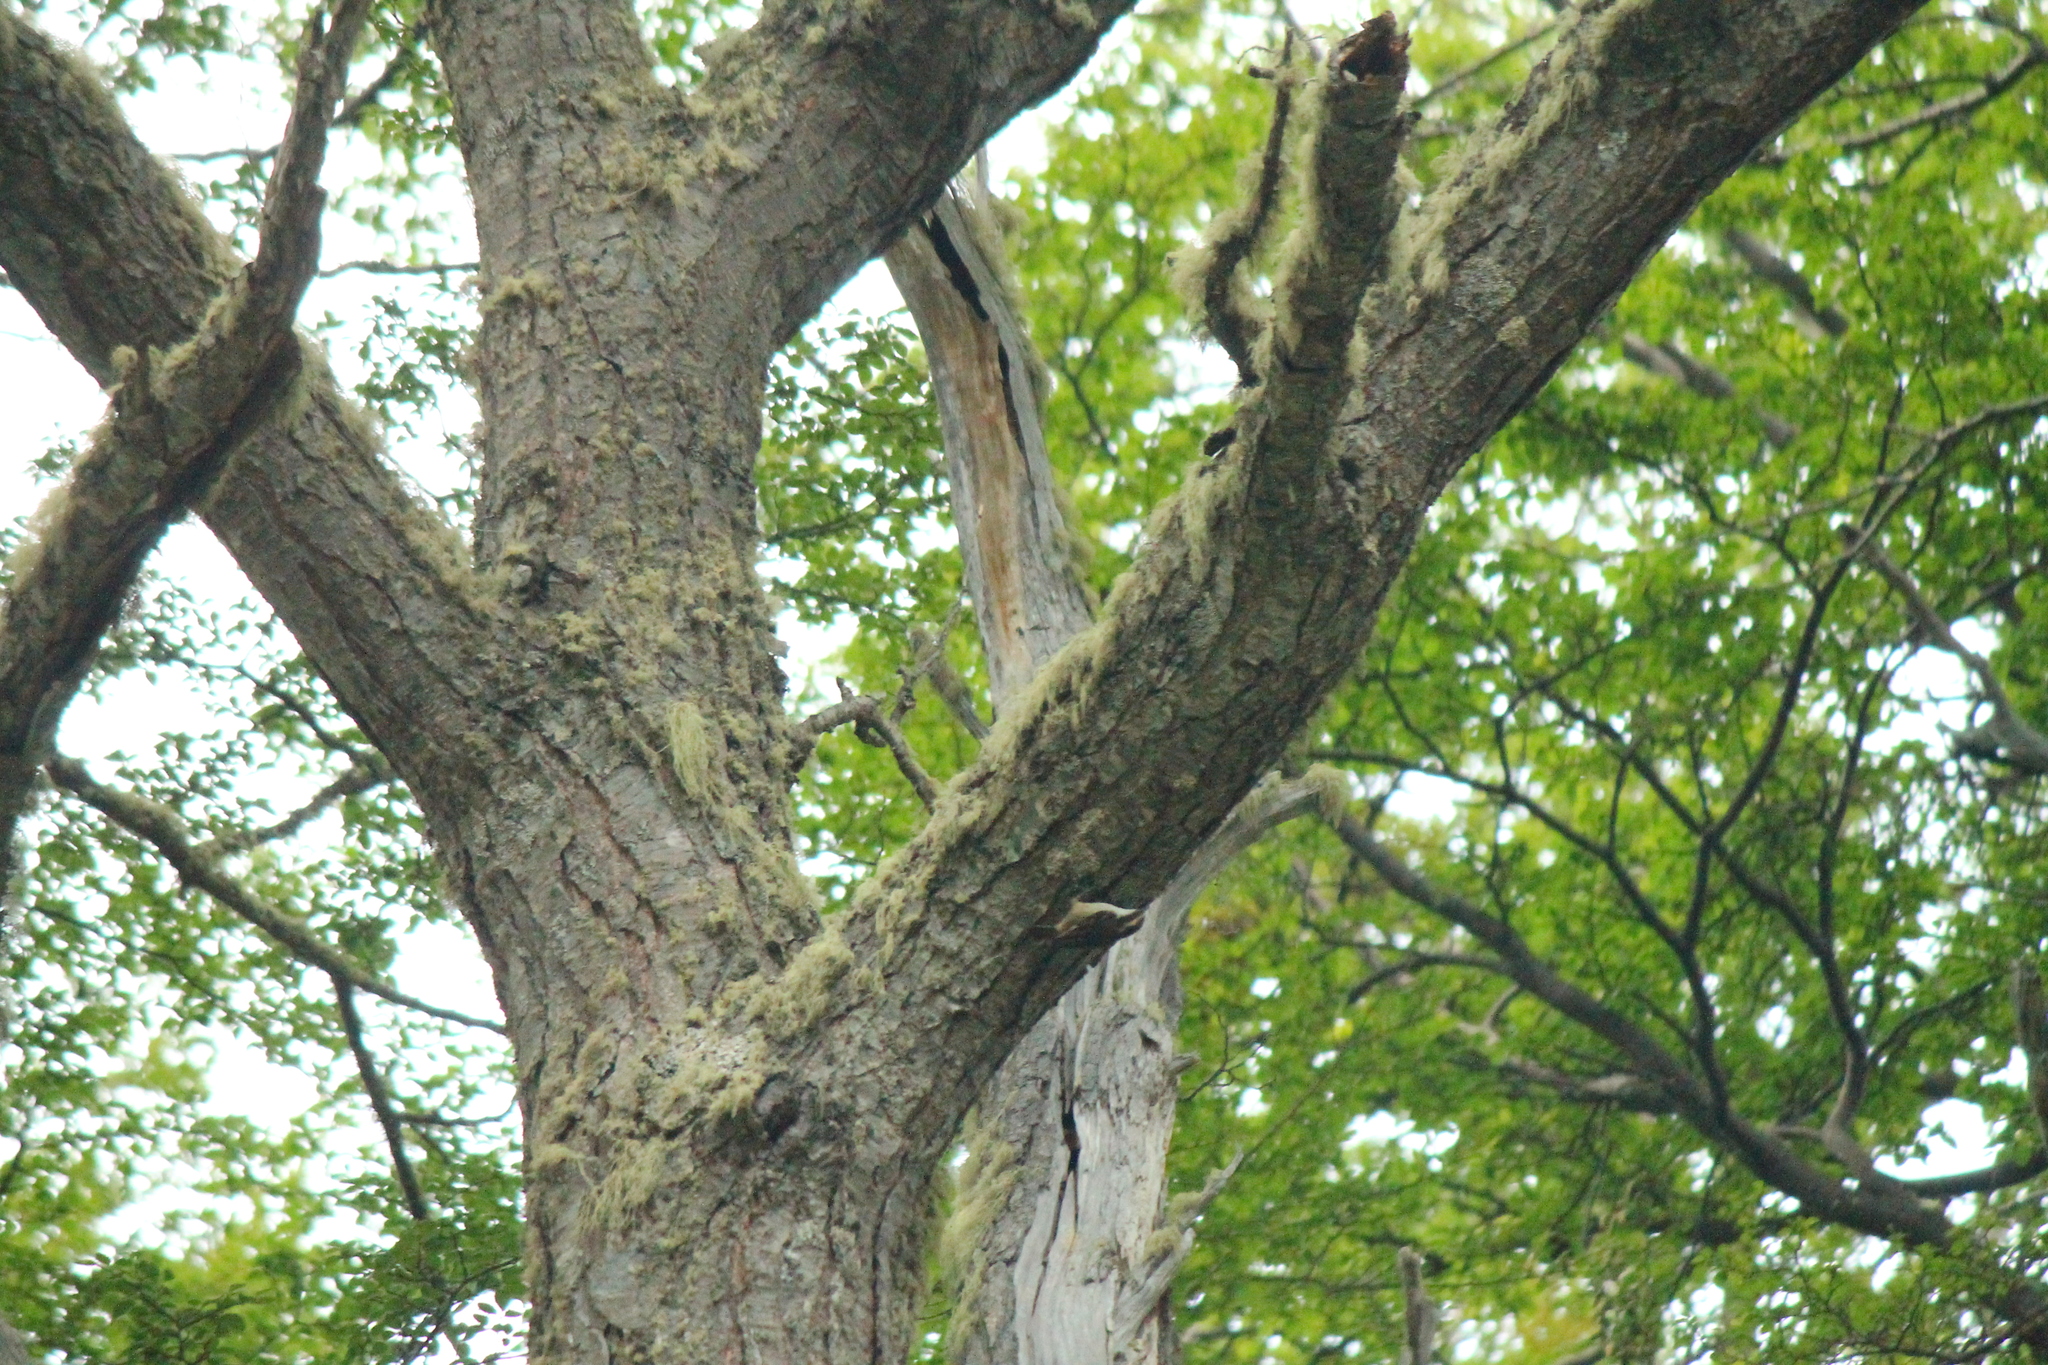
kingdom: Animalia
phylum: Chordata
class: Aves
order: Passeriformes
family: Furnariidae
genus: Aphrastura
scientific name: Aphrastura spinicauda
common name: Thorn-tailed rayadito
